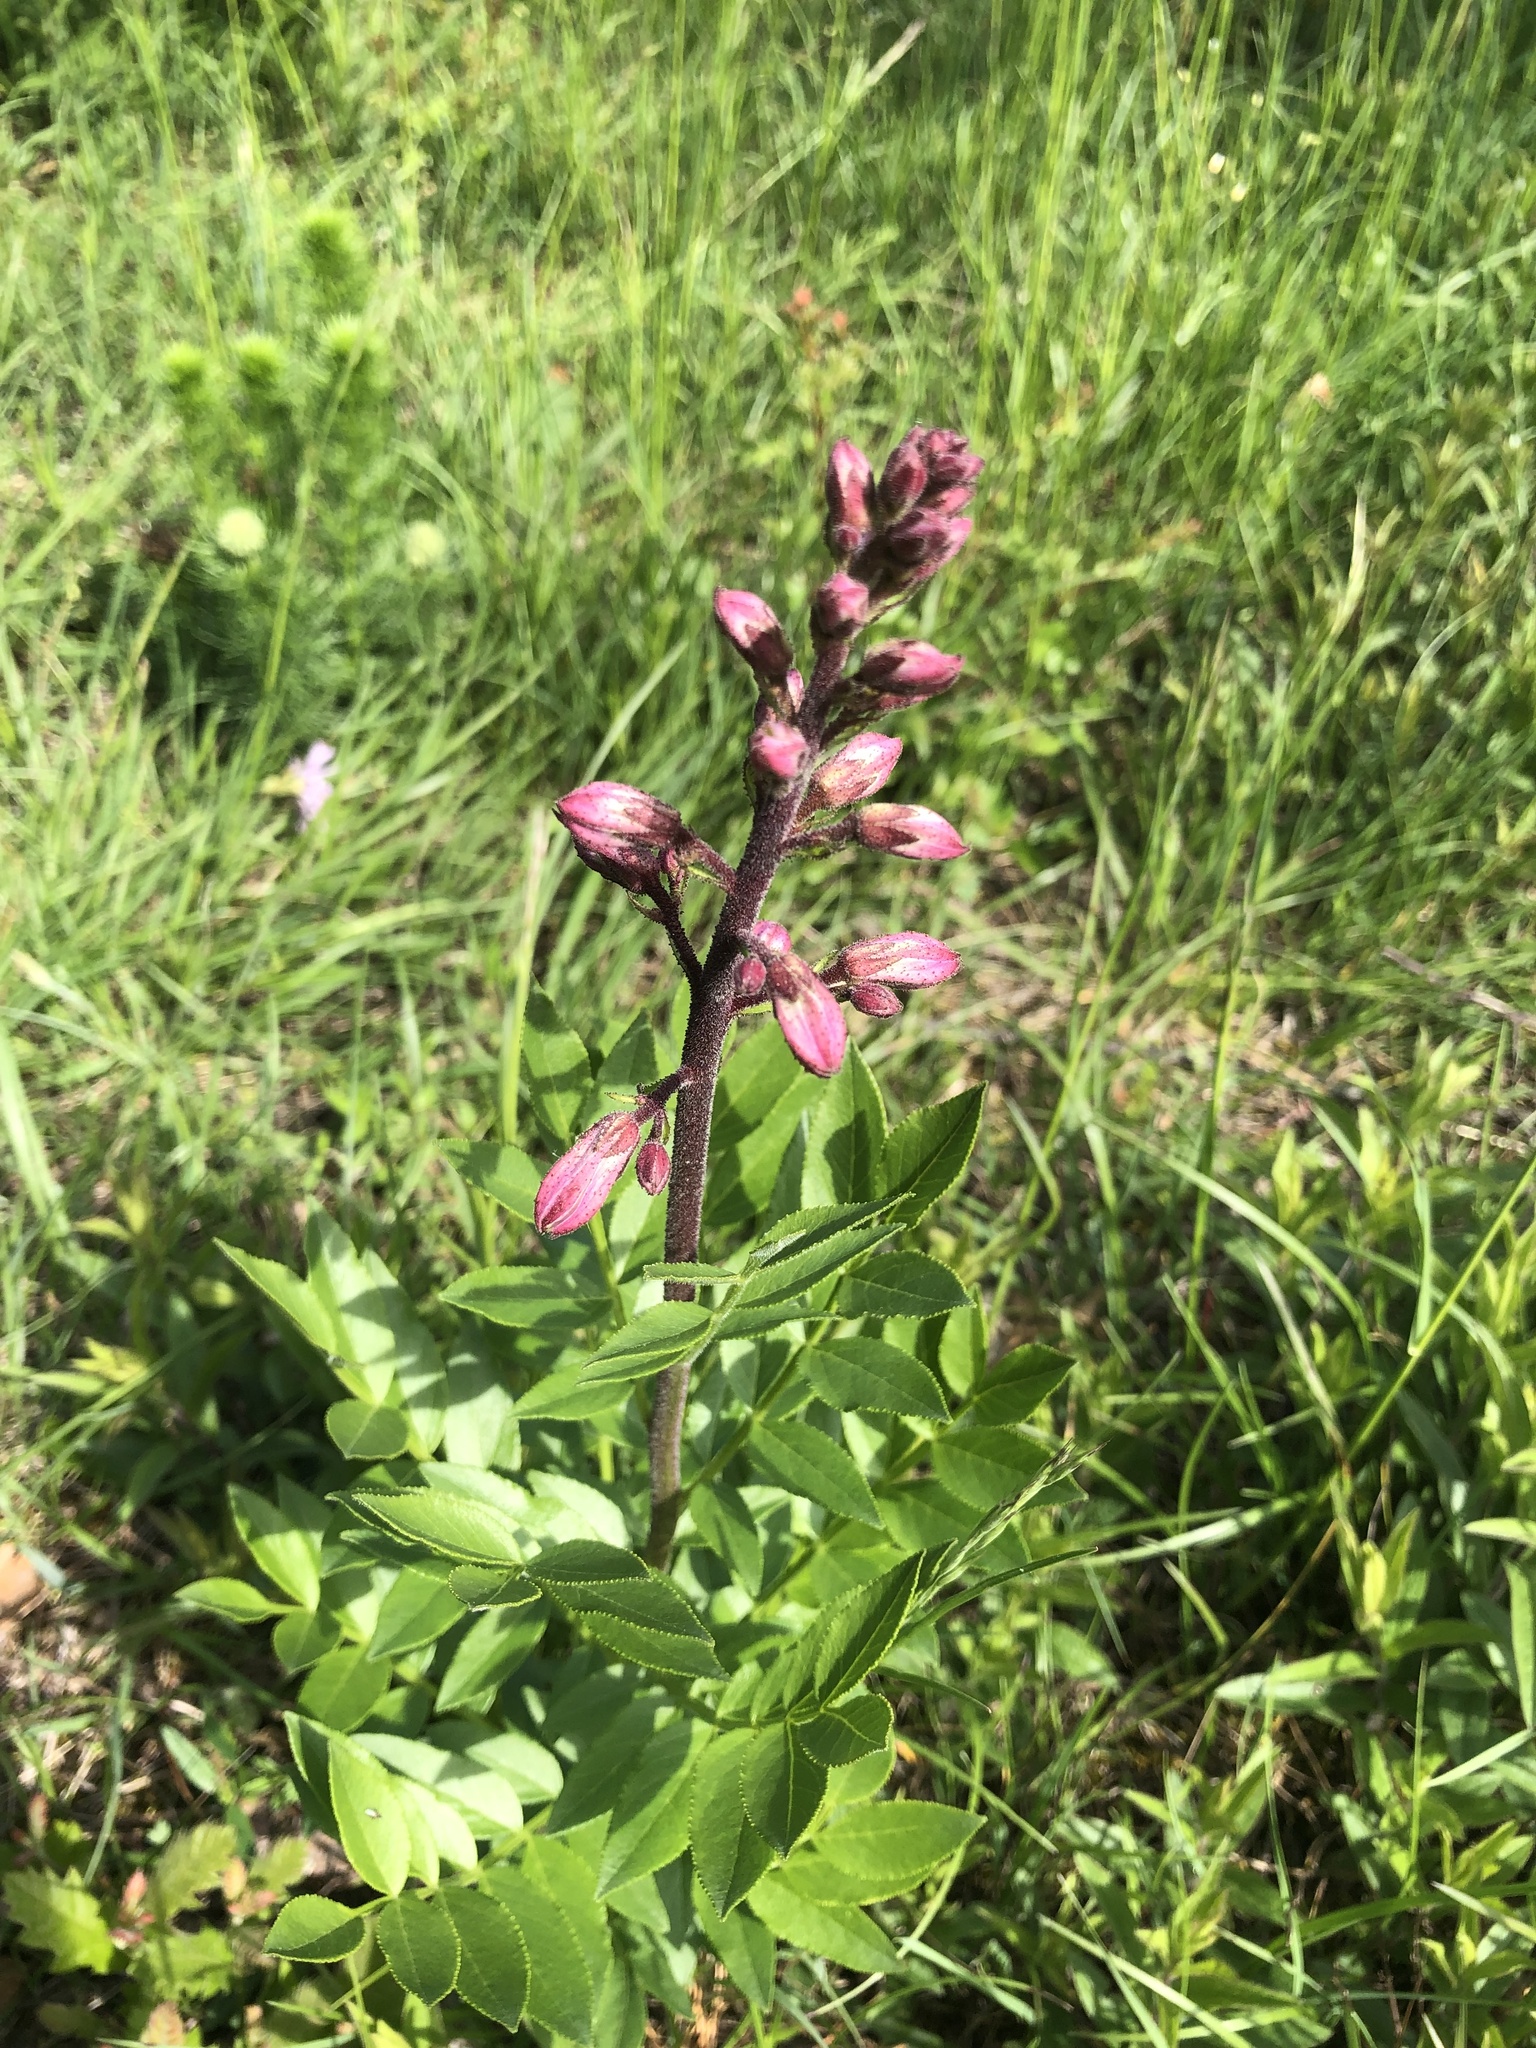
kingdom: Plantae
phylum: Tracheophyta
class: Magnoliopsida
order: Sapindales
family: Rutaceae
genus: Dictamnus
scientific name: Dictamnus albus
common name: Gasplant
